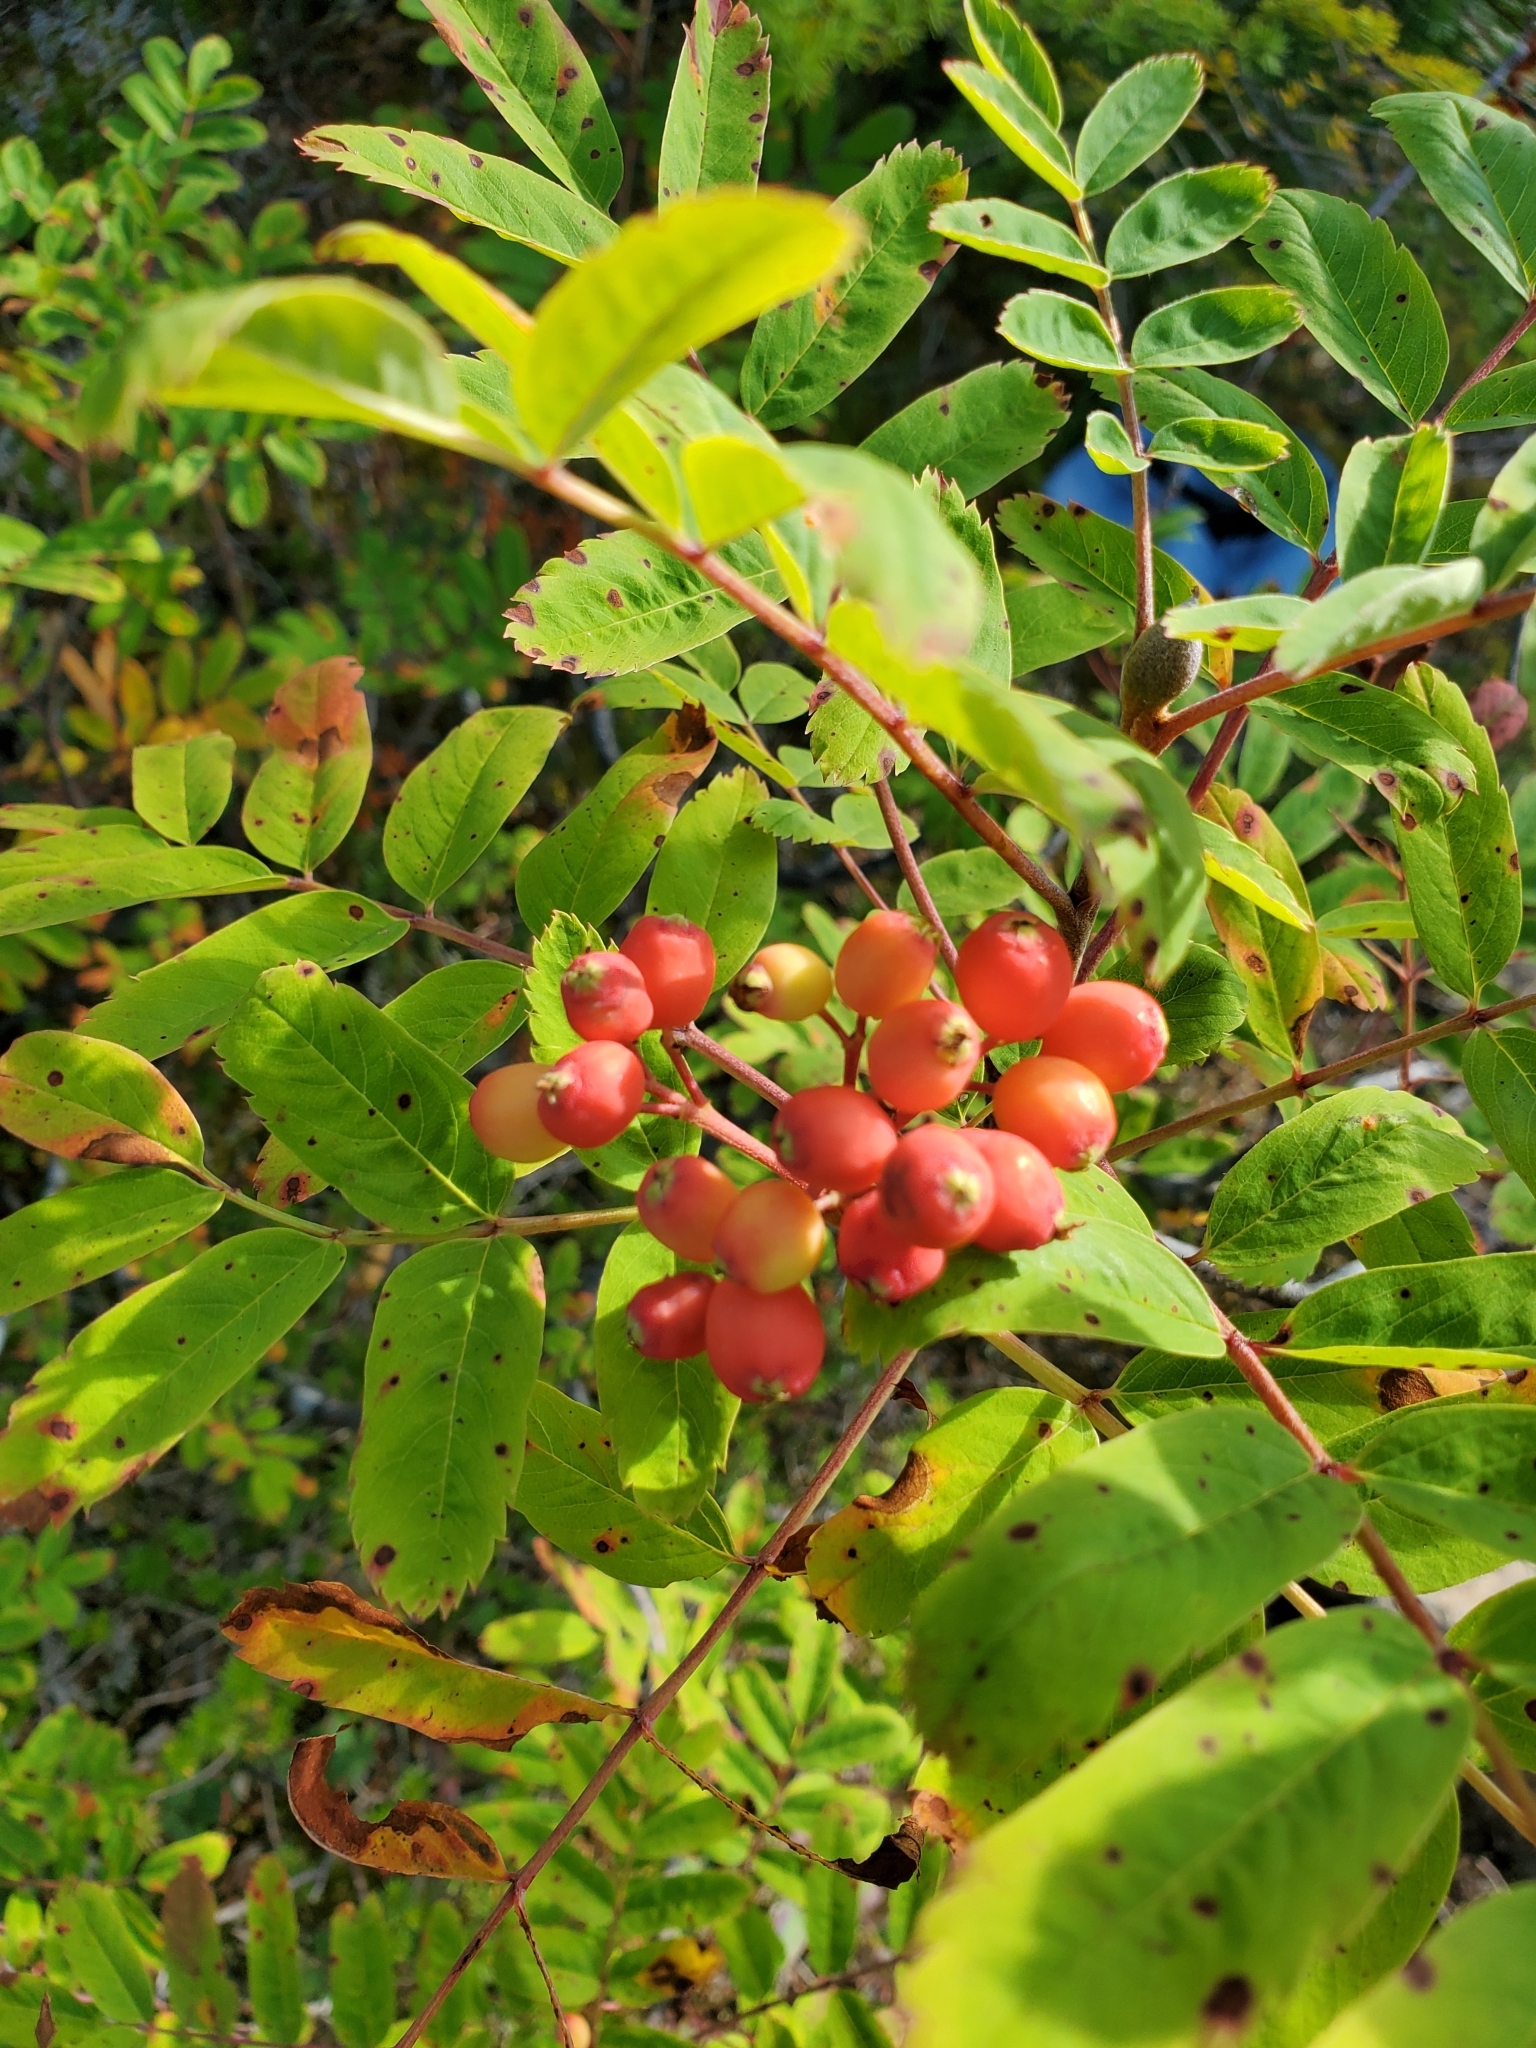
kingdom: Plantae
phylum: Tracheophyta
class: Magnoliopsida
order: Rosales
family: Rosaceae
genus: Sorbus
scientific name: Sorbus sitchensis
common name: Sitka mountain-ash
